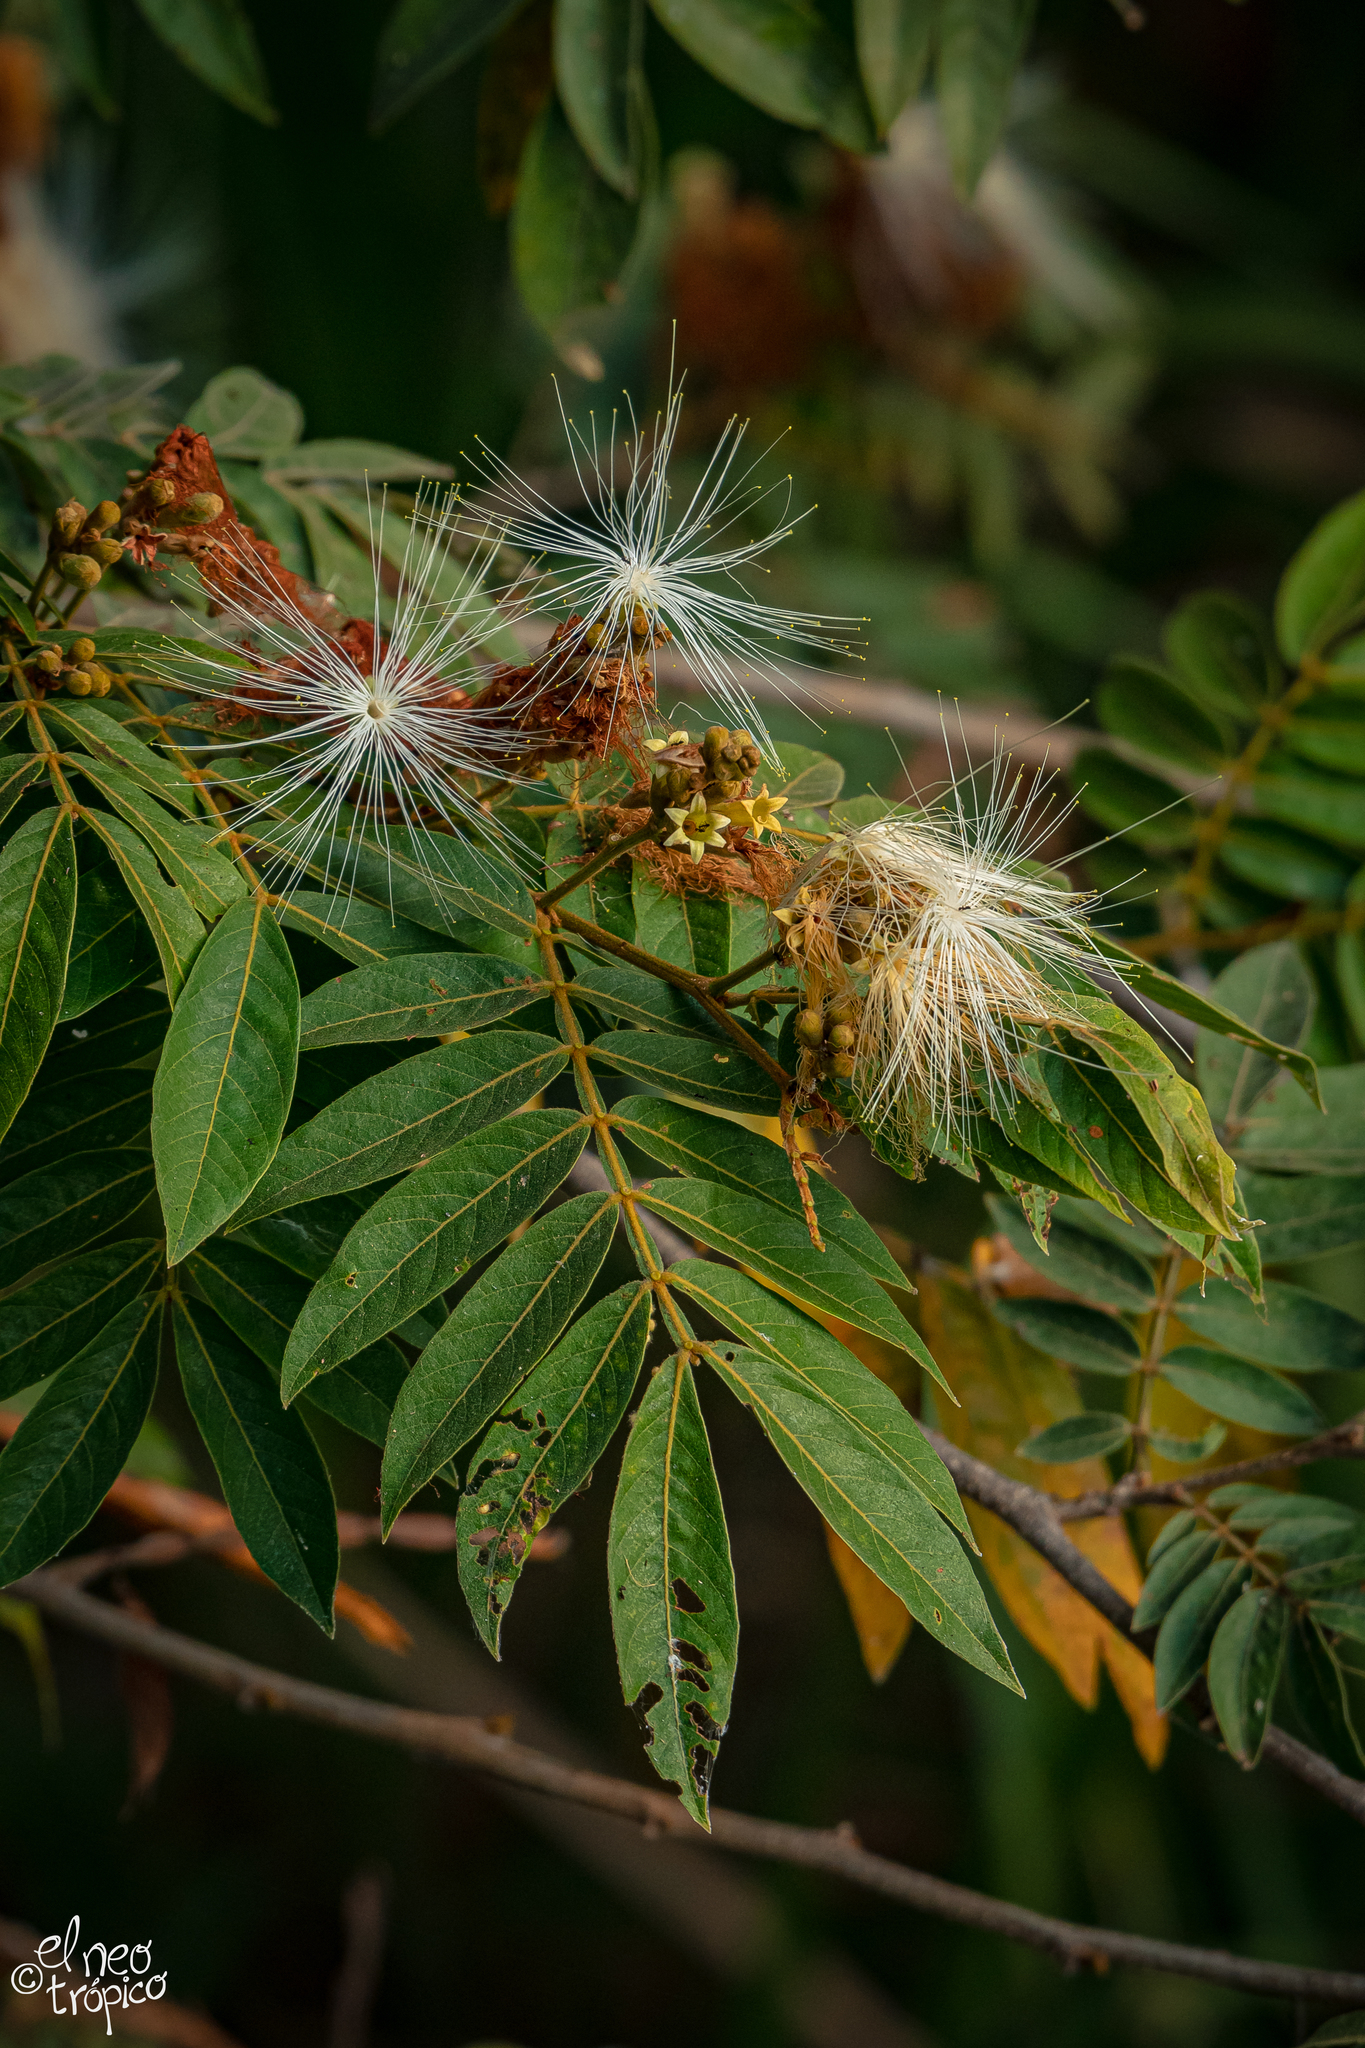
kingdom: Plantae
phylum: Tracheophyta
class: Magnoliopsida
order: Fabales
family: Fabaceae
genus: Inga
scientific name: Inga vera
